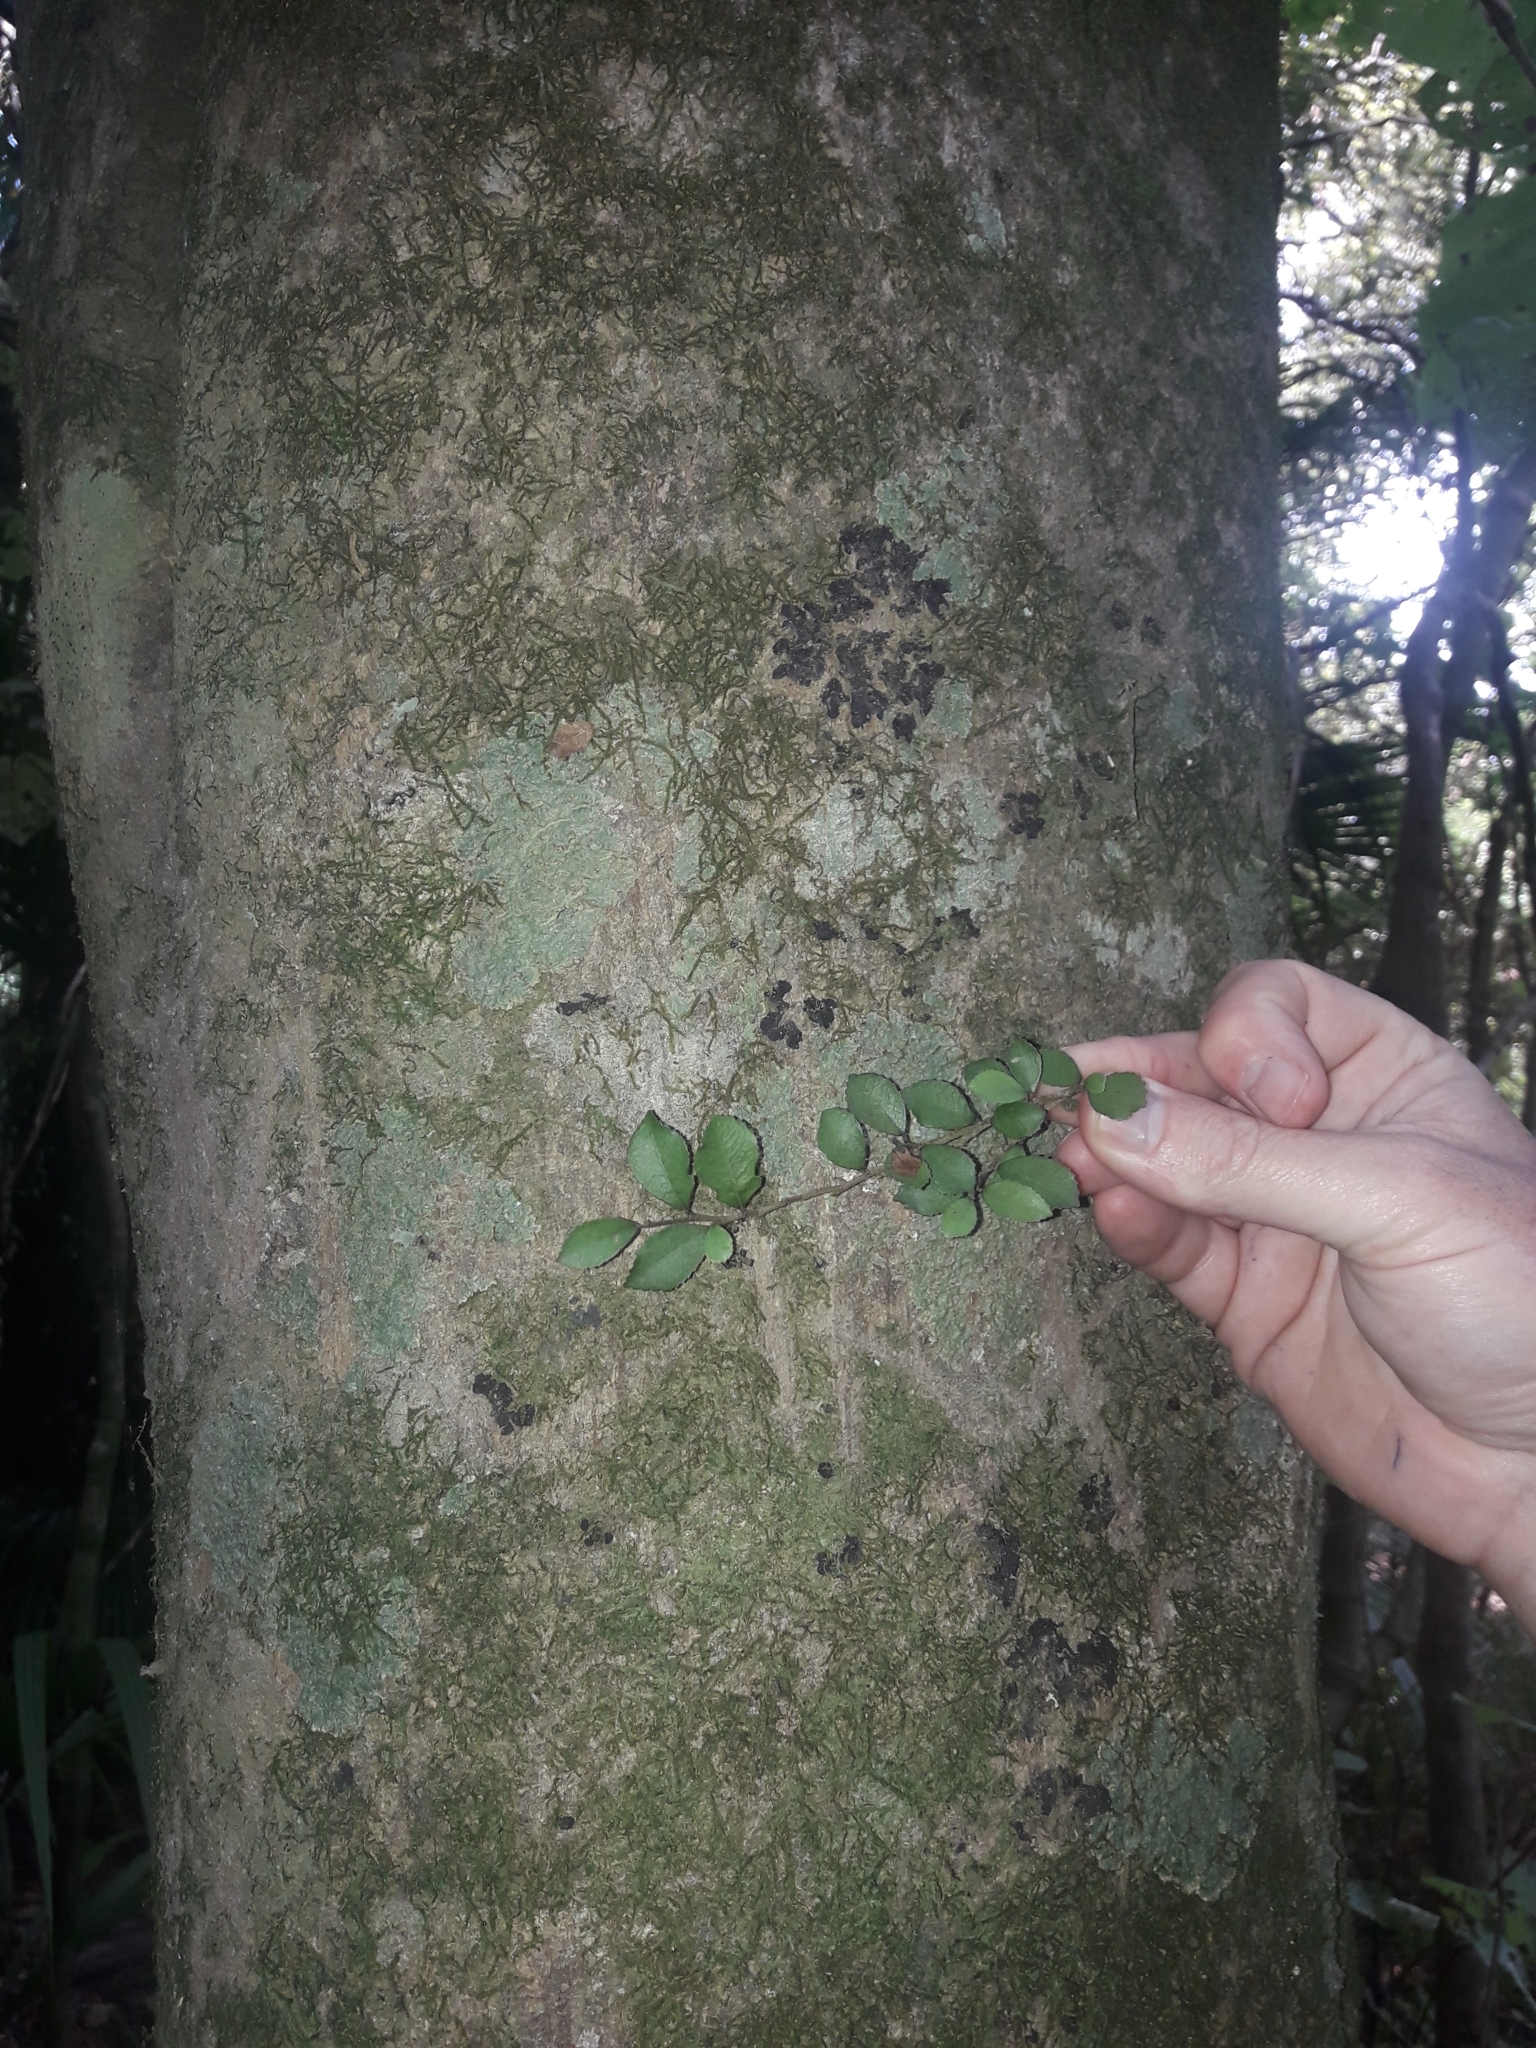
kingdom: Plantae
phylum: Tracheophyta
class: Magnoliopsida
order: Rosales
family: Moraceae
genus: Paratrophis
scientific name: Paratrophis microphylla
